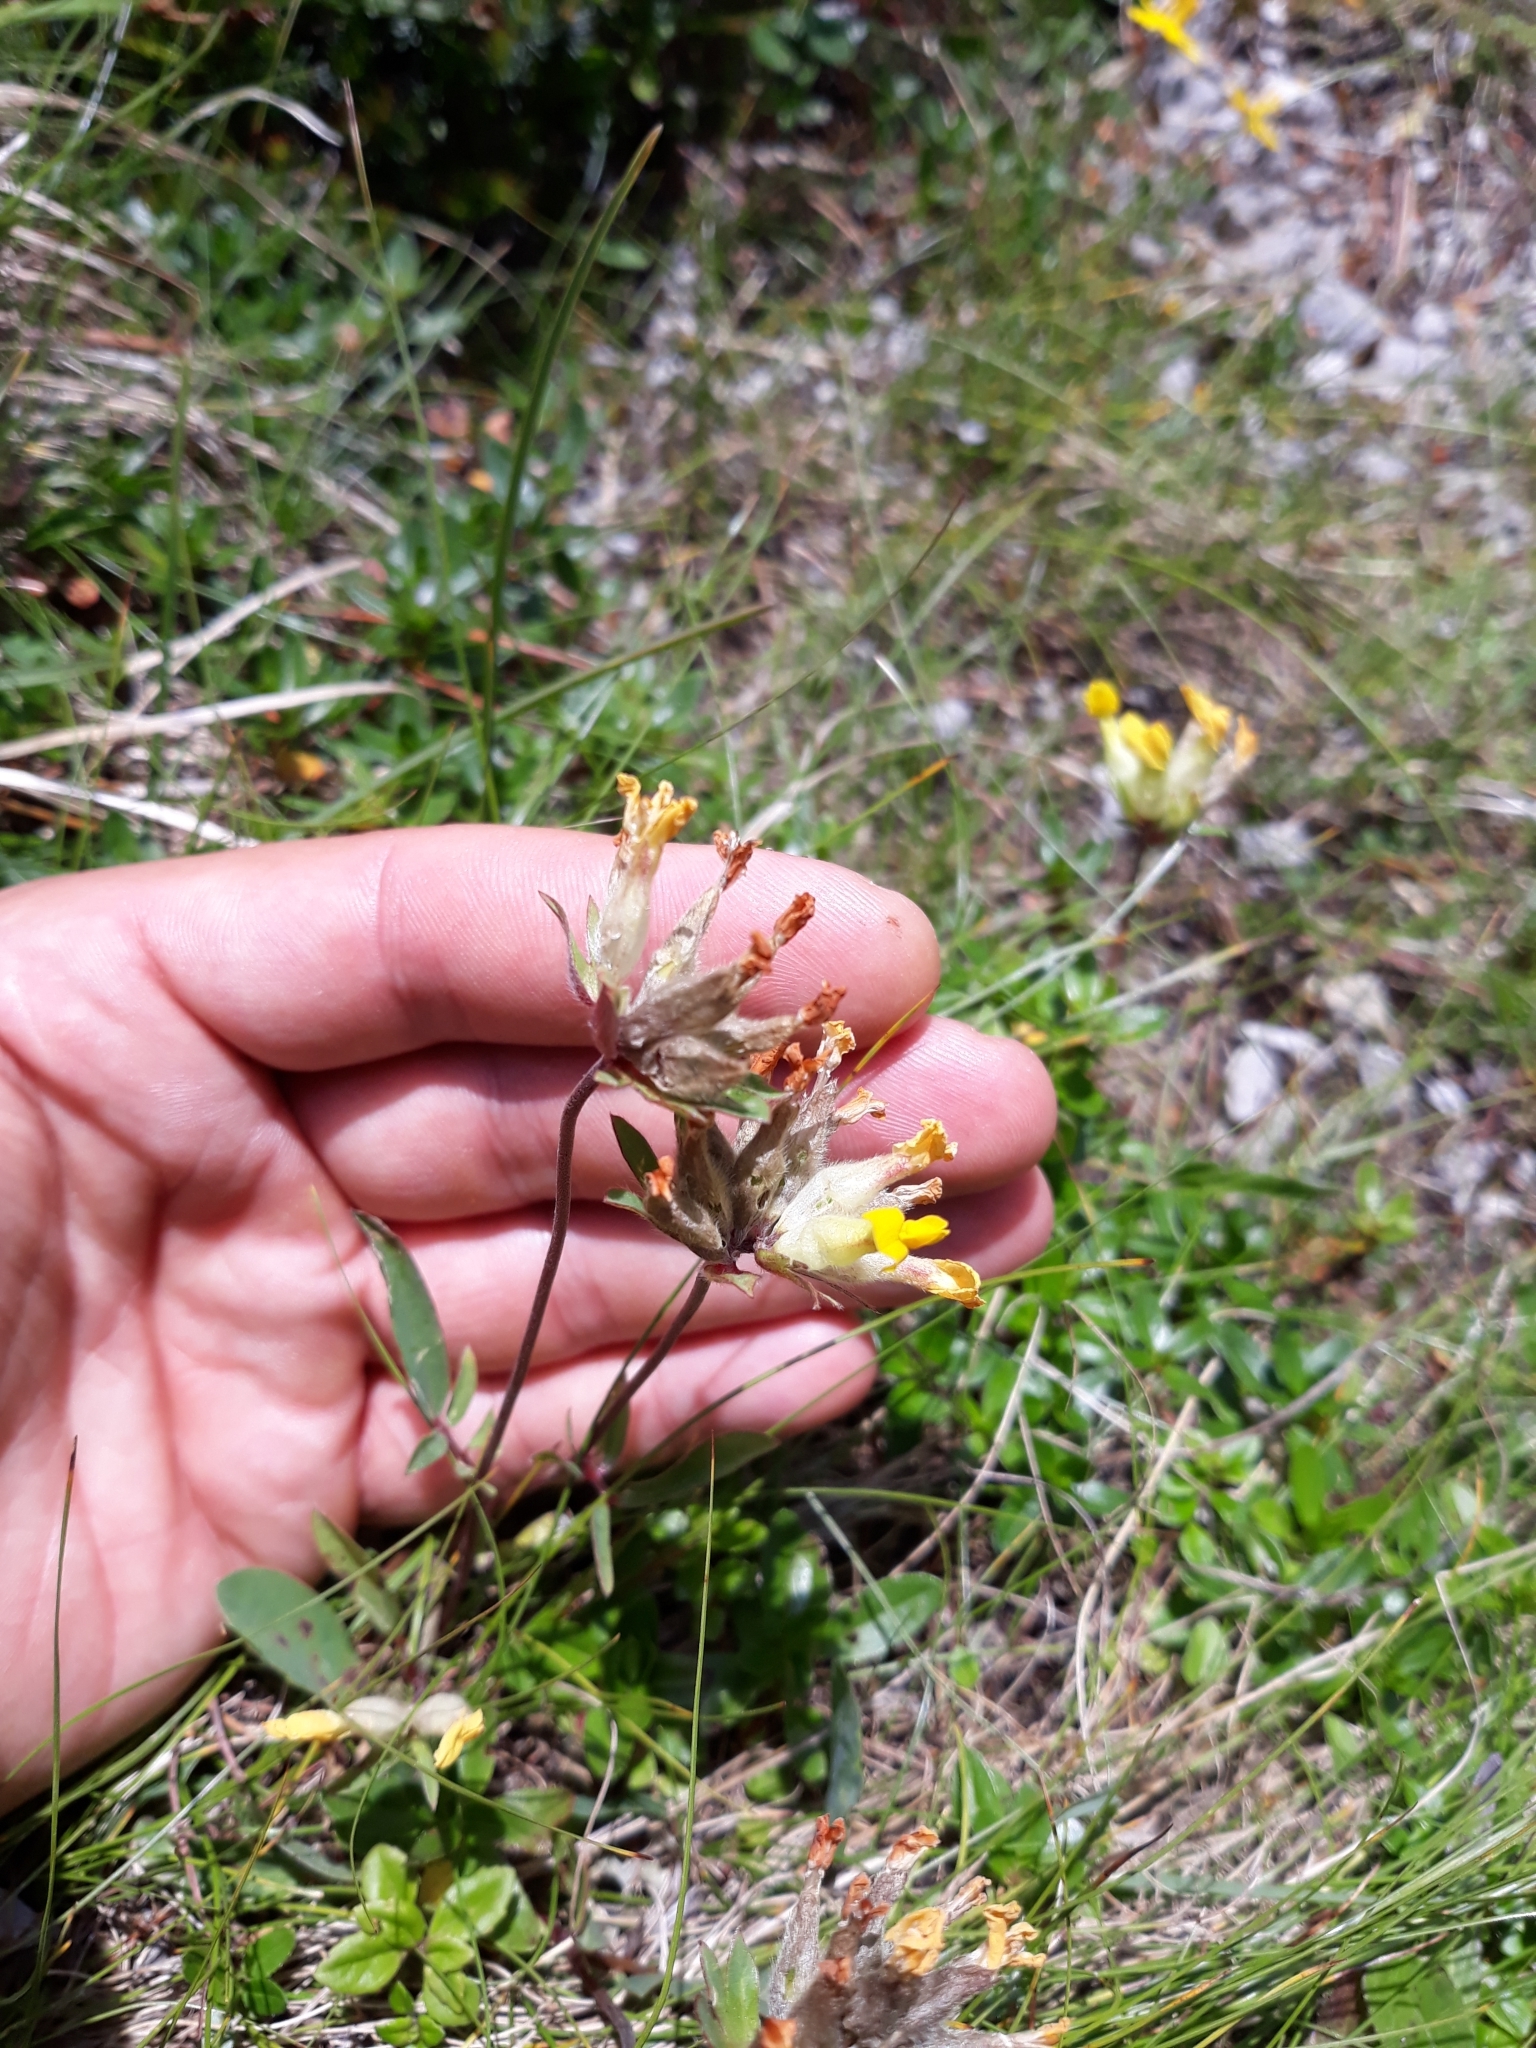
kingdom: Plantae
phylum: Tracheophyta
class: Magnoliopsida
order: Fabales
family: Fabaceae
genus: Anthyllis
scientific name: Anthyllis vulneraria
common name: Kidney vetch
